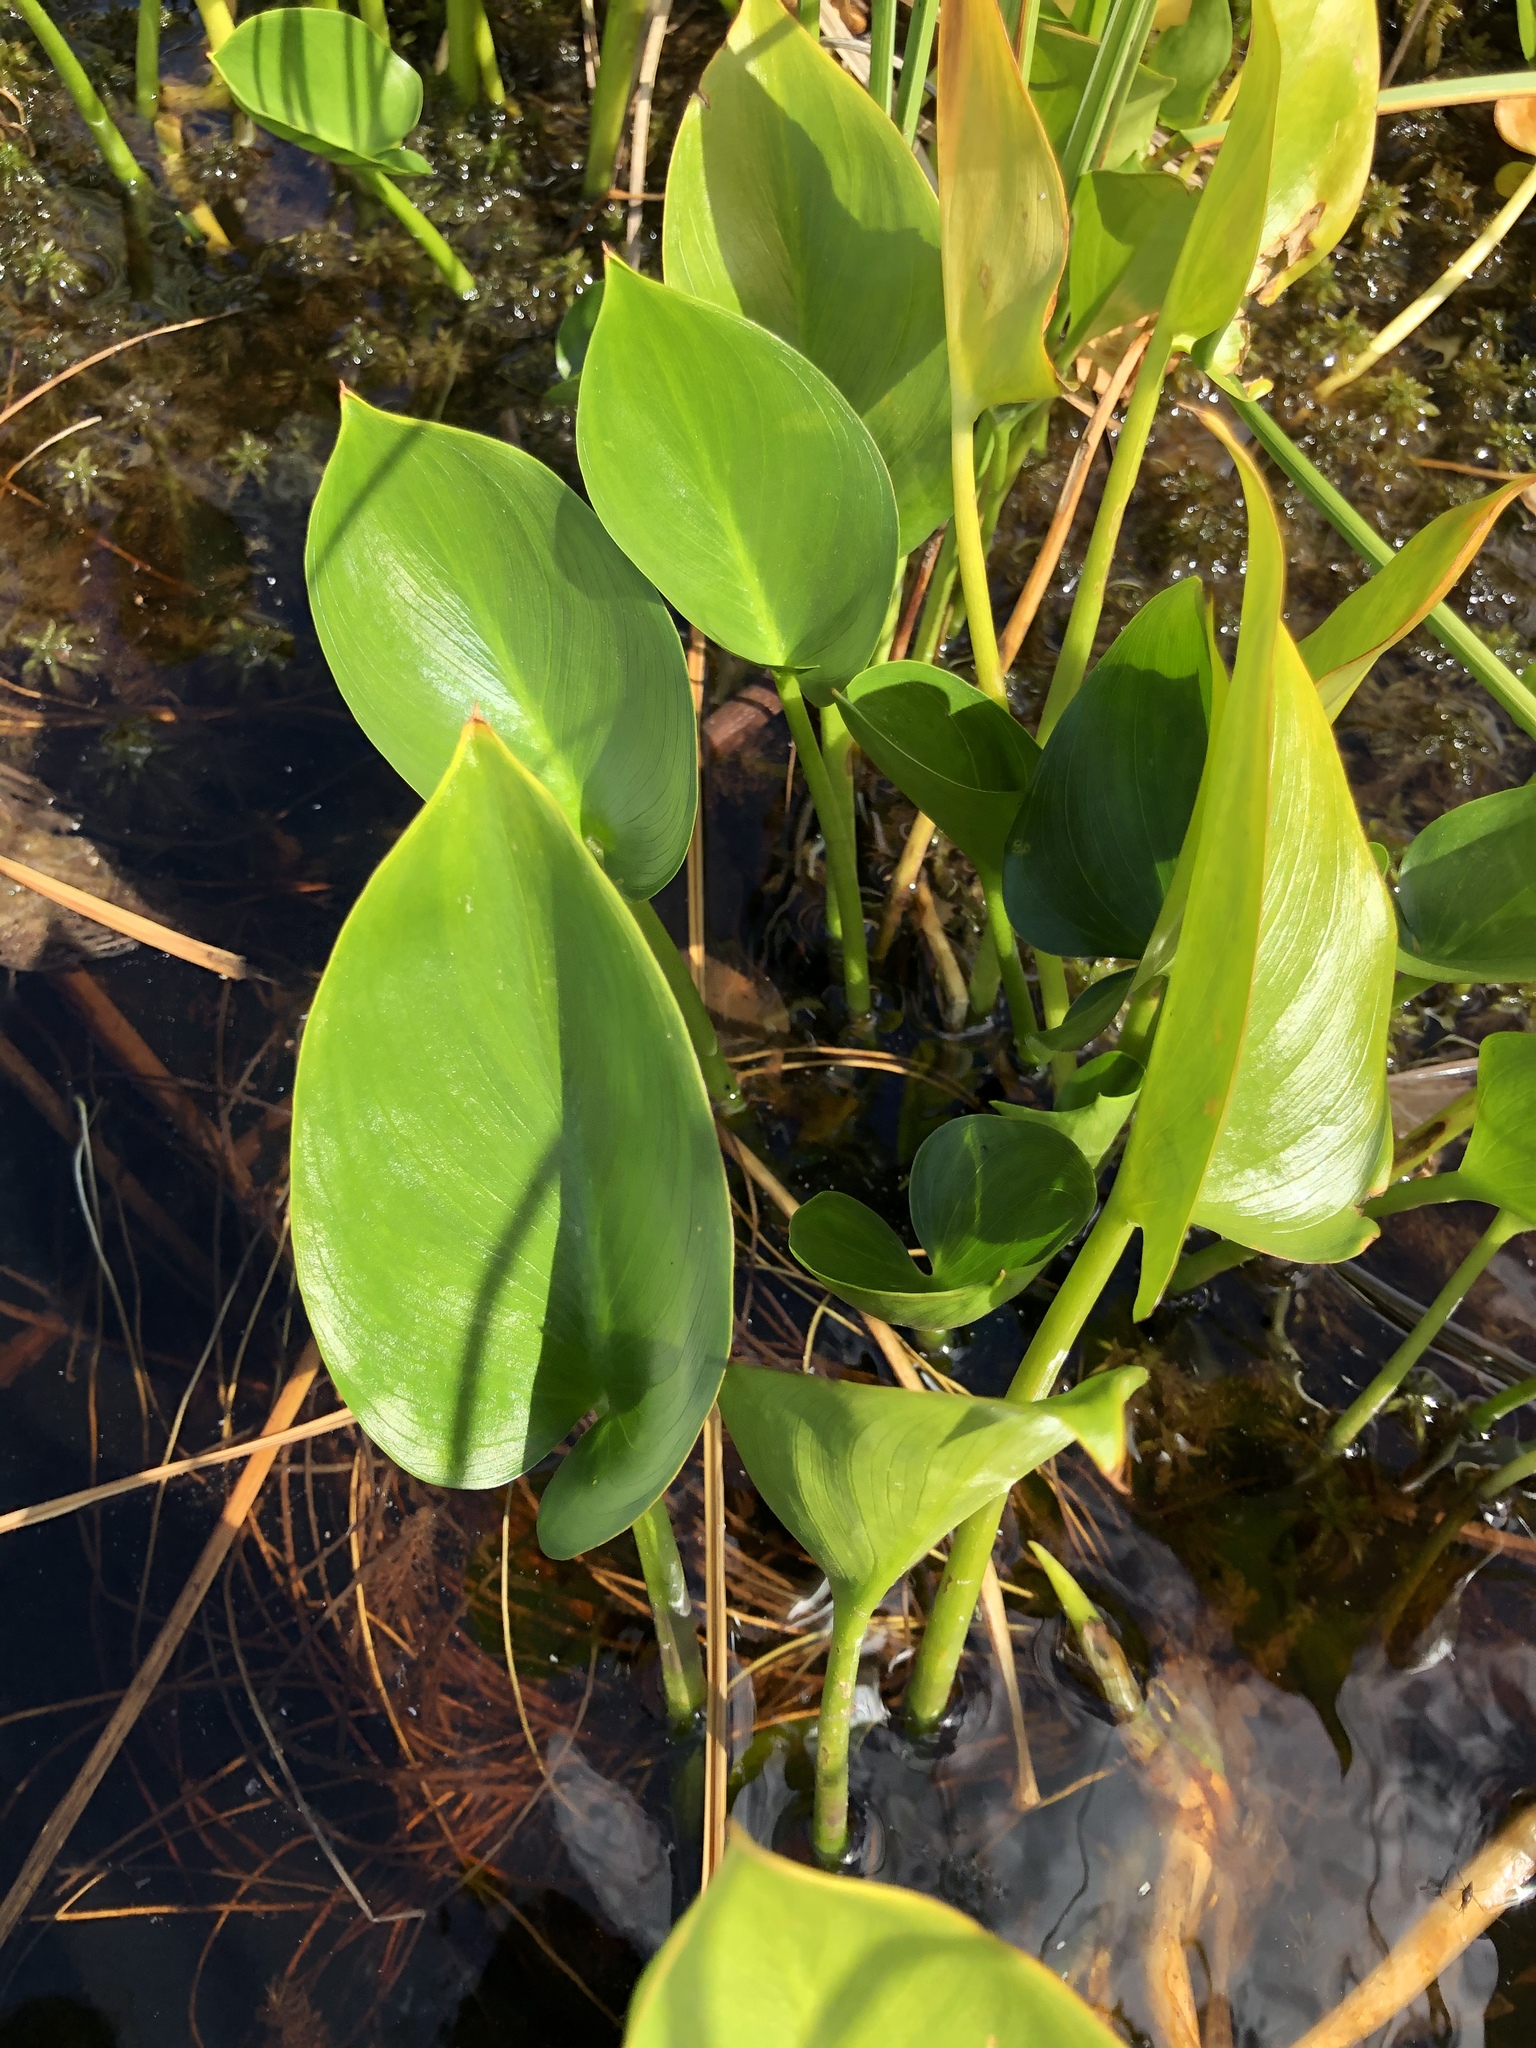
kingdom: Plantae
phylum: Tracheophyta
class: Liliopsida
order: Alismatales
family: Araceae
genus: Calla
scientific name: Calla palustris
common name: Bog arum
